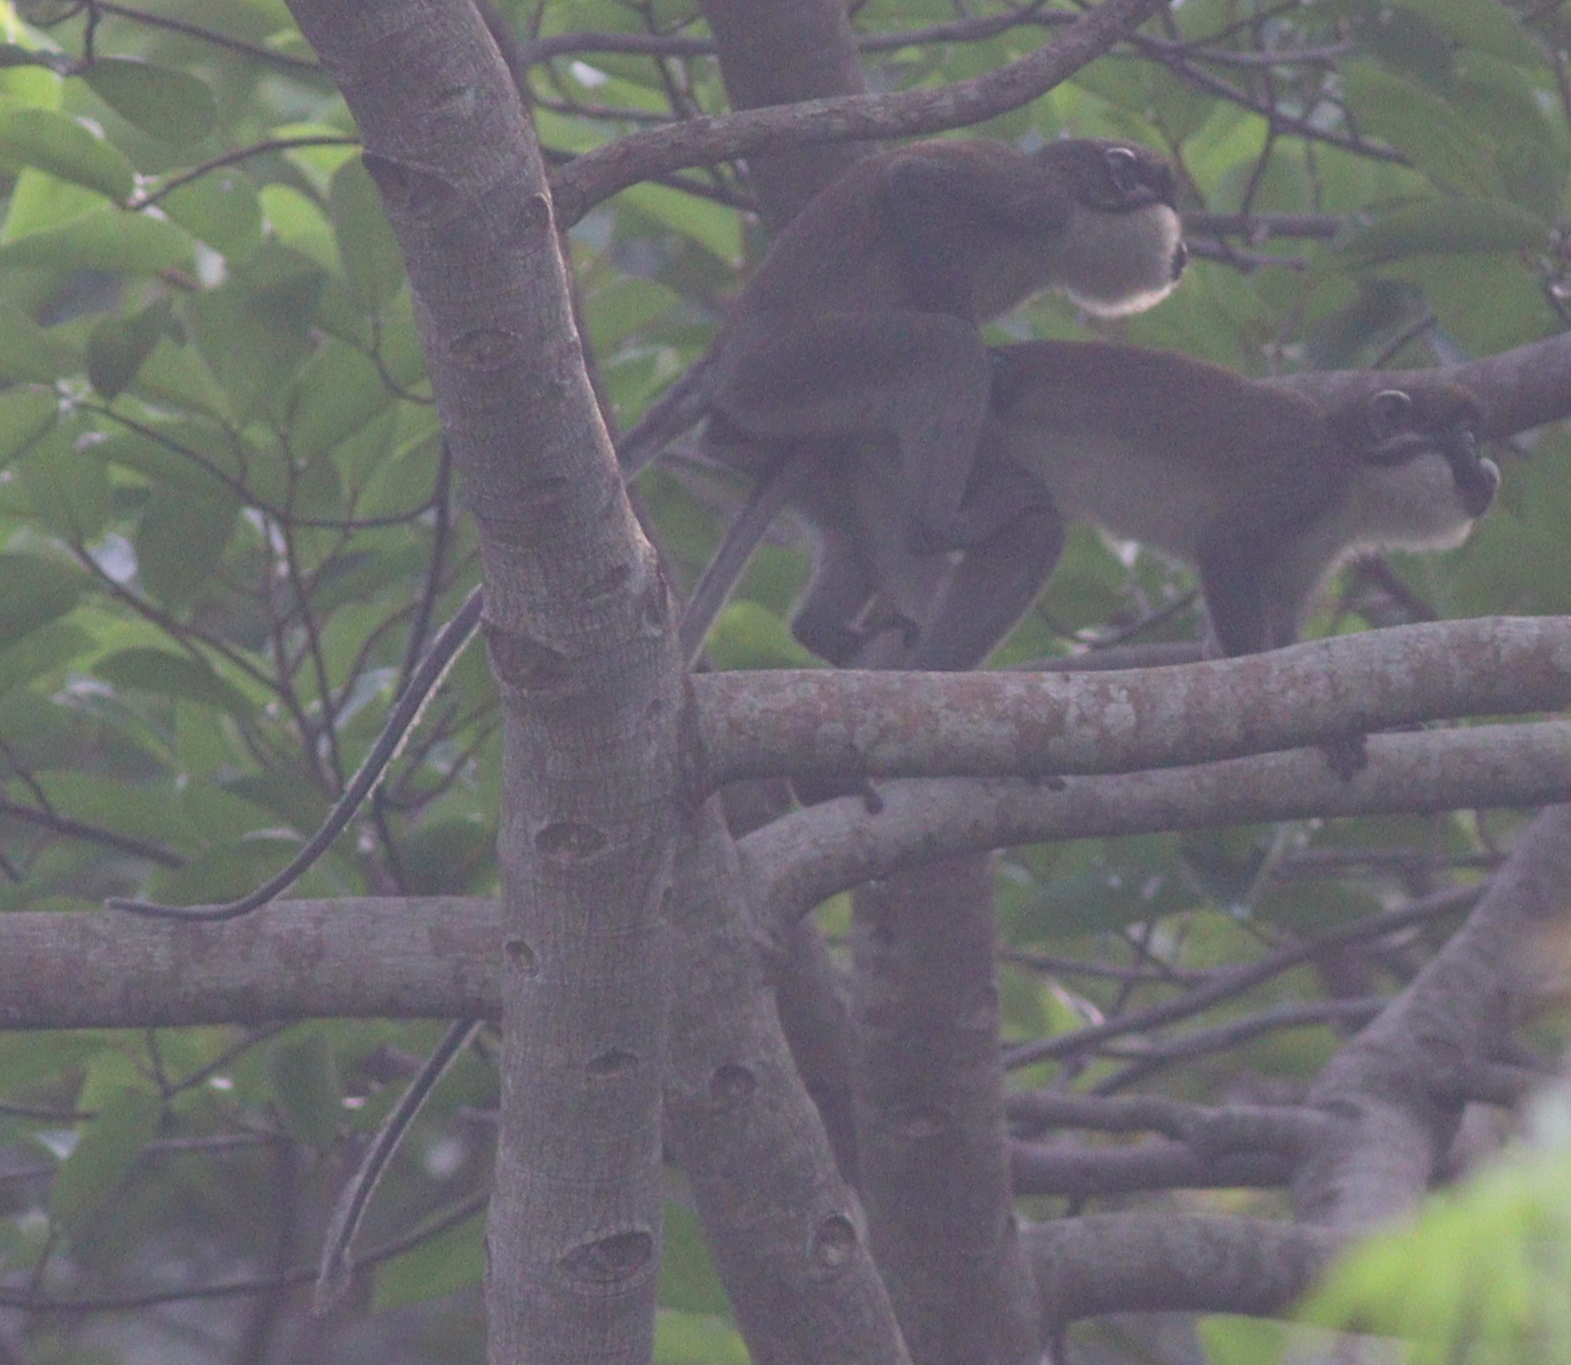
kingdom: Animalia
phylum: Chordata
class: Mammalia
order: Primates
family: Cercopithecidae
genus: Cercopithecus
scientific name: Cercopithecus petaurista
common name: Lesser spot-nosed monkey
